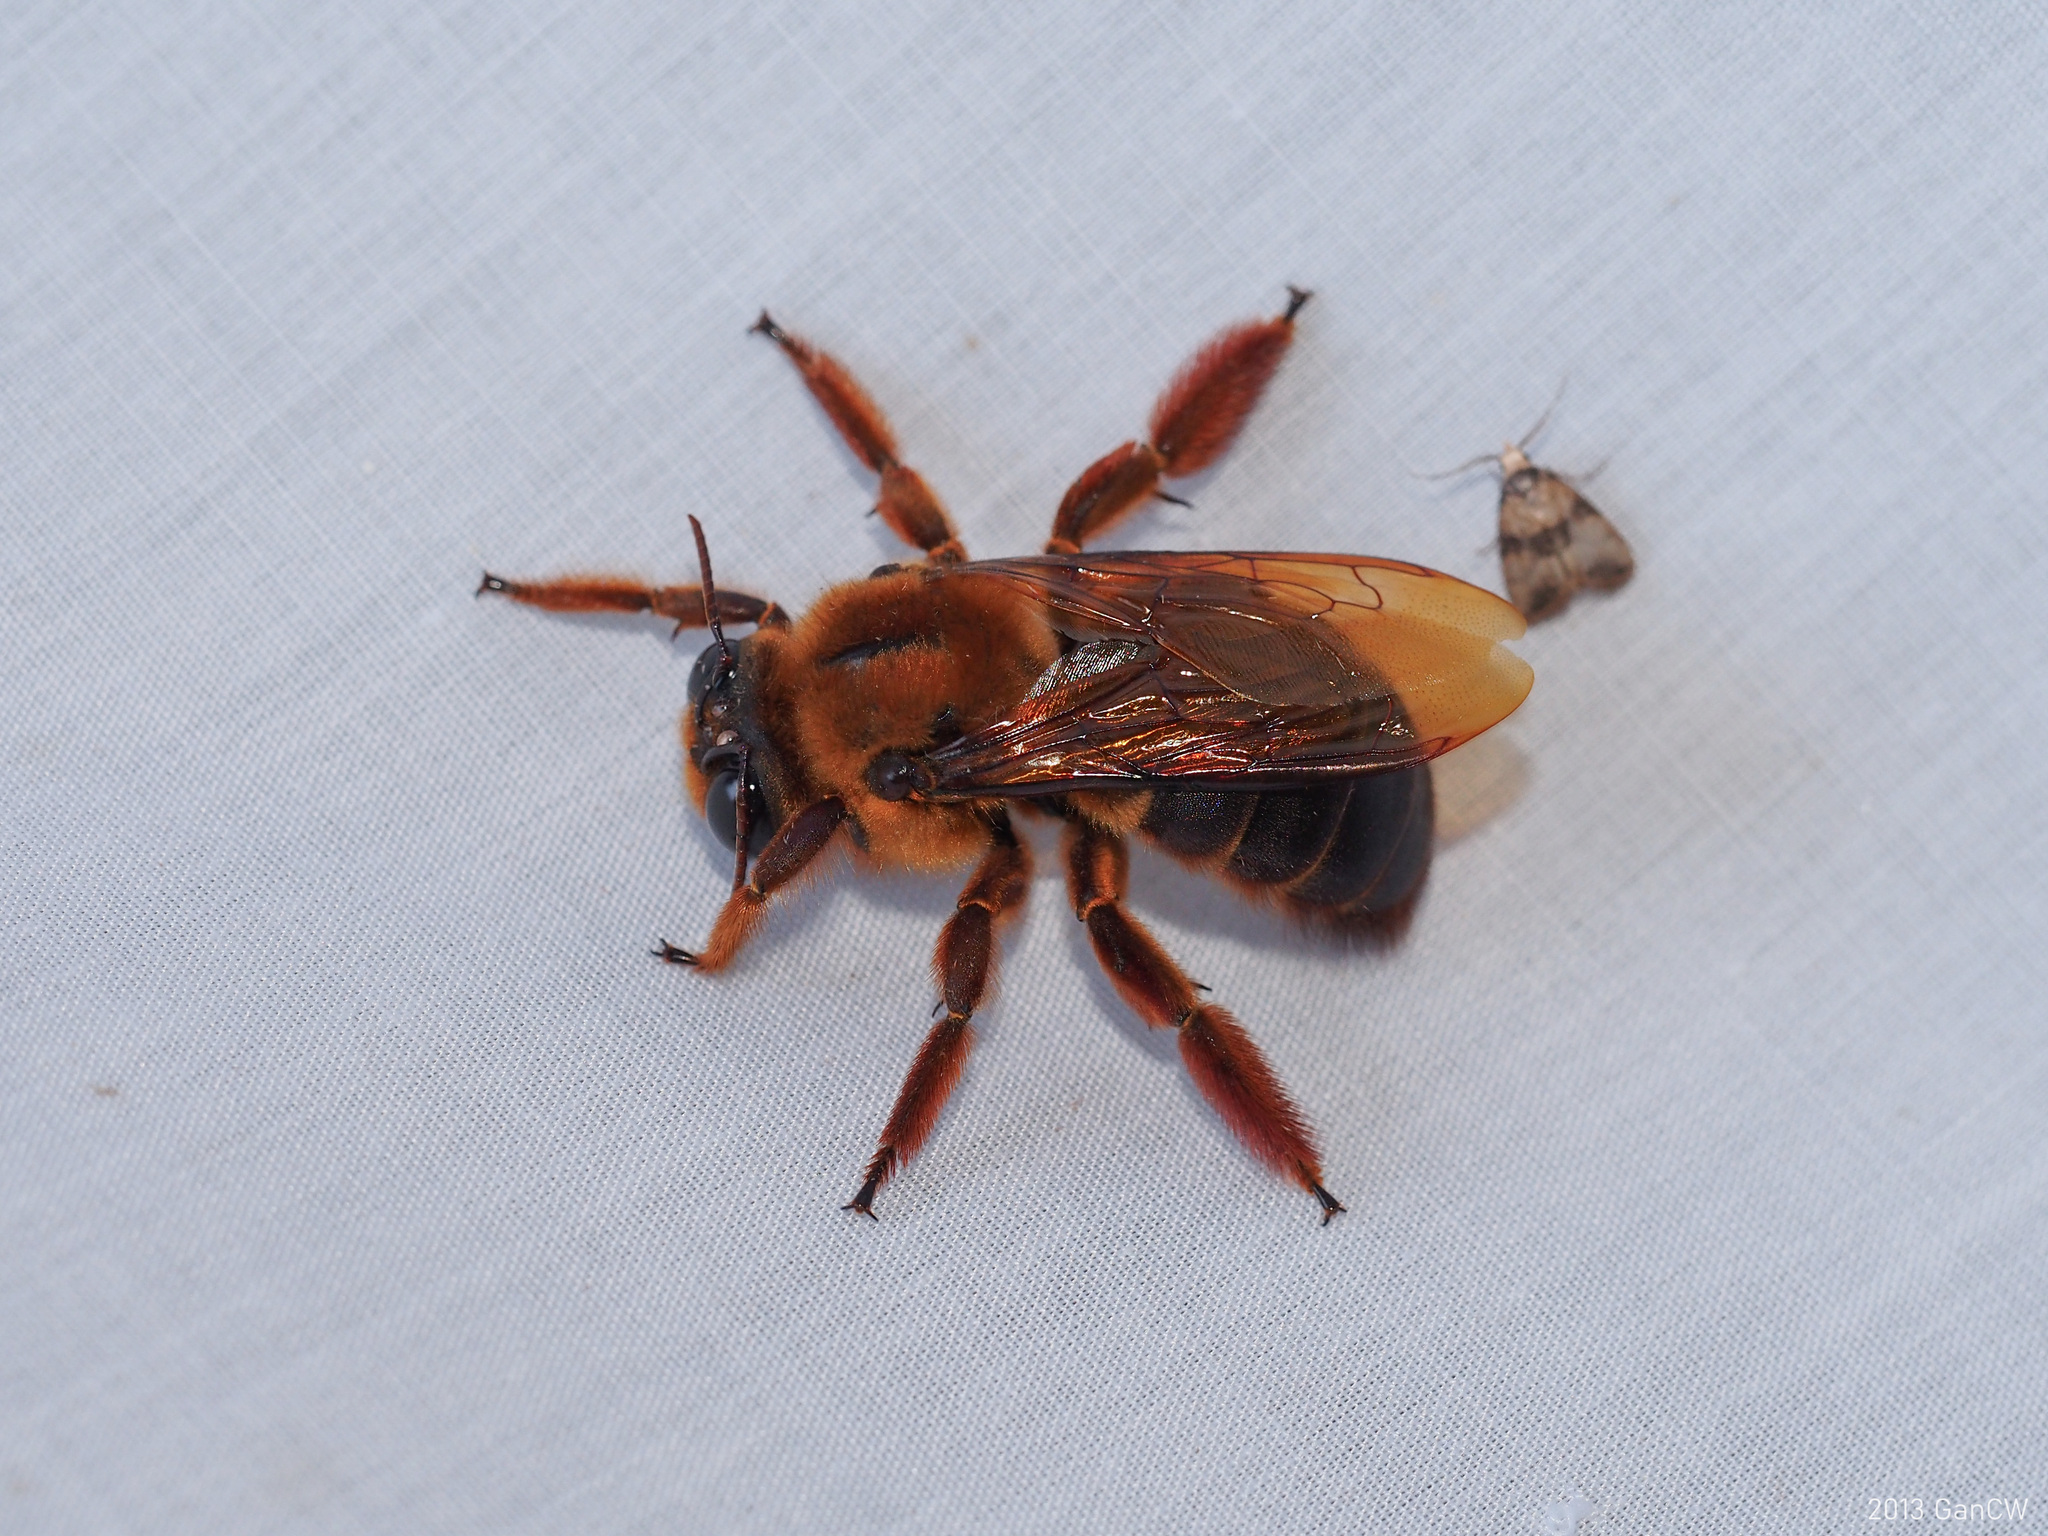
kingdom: Animalia
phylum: Arthropoda
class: Insecta
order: Hymenoptera
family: Apidae
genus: Xylocopa
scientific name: Xylocopa myops
